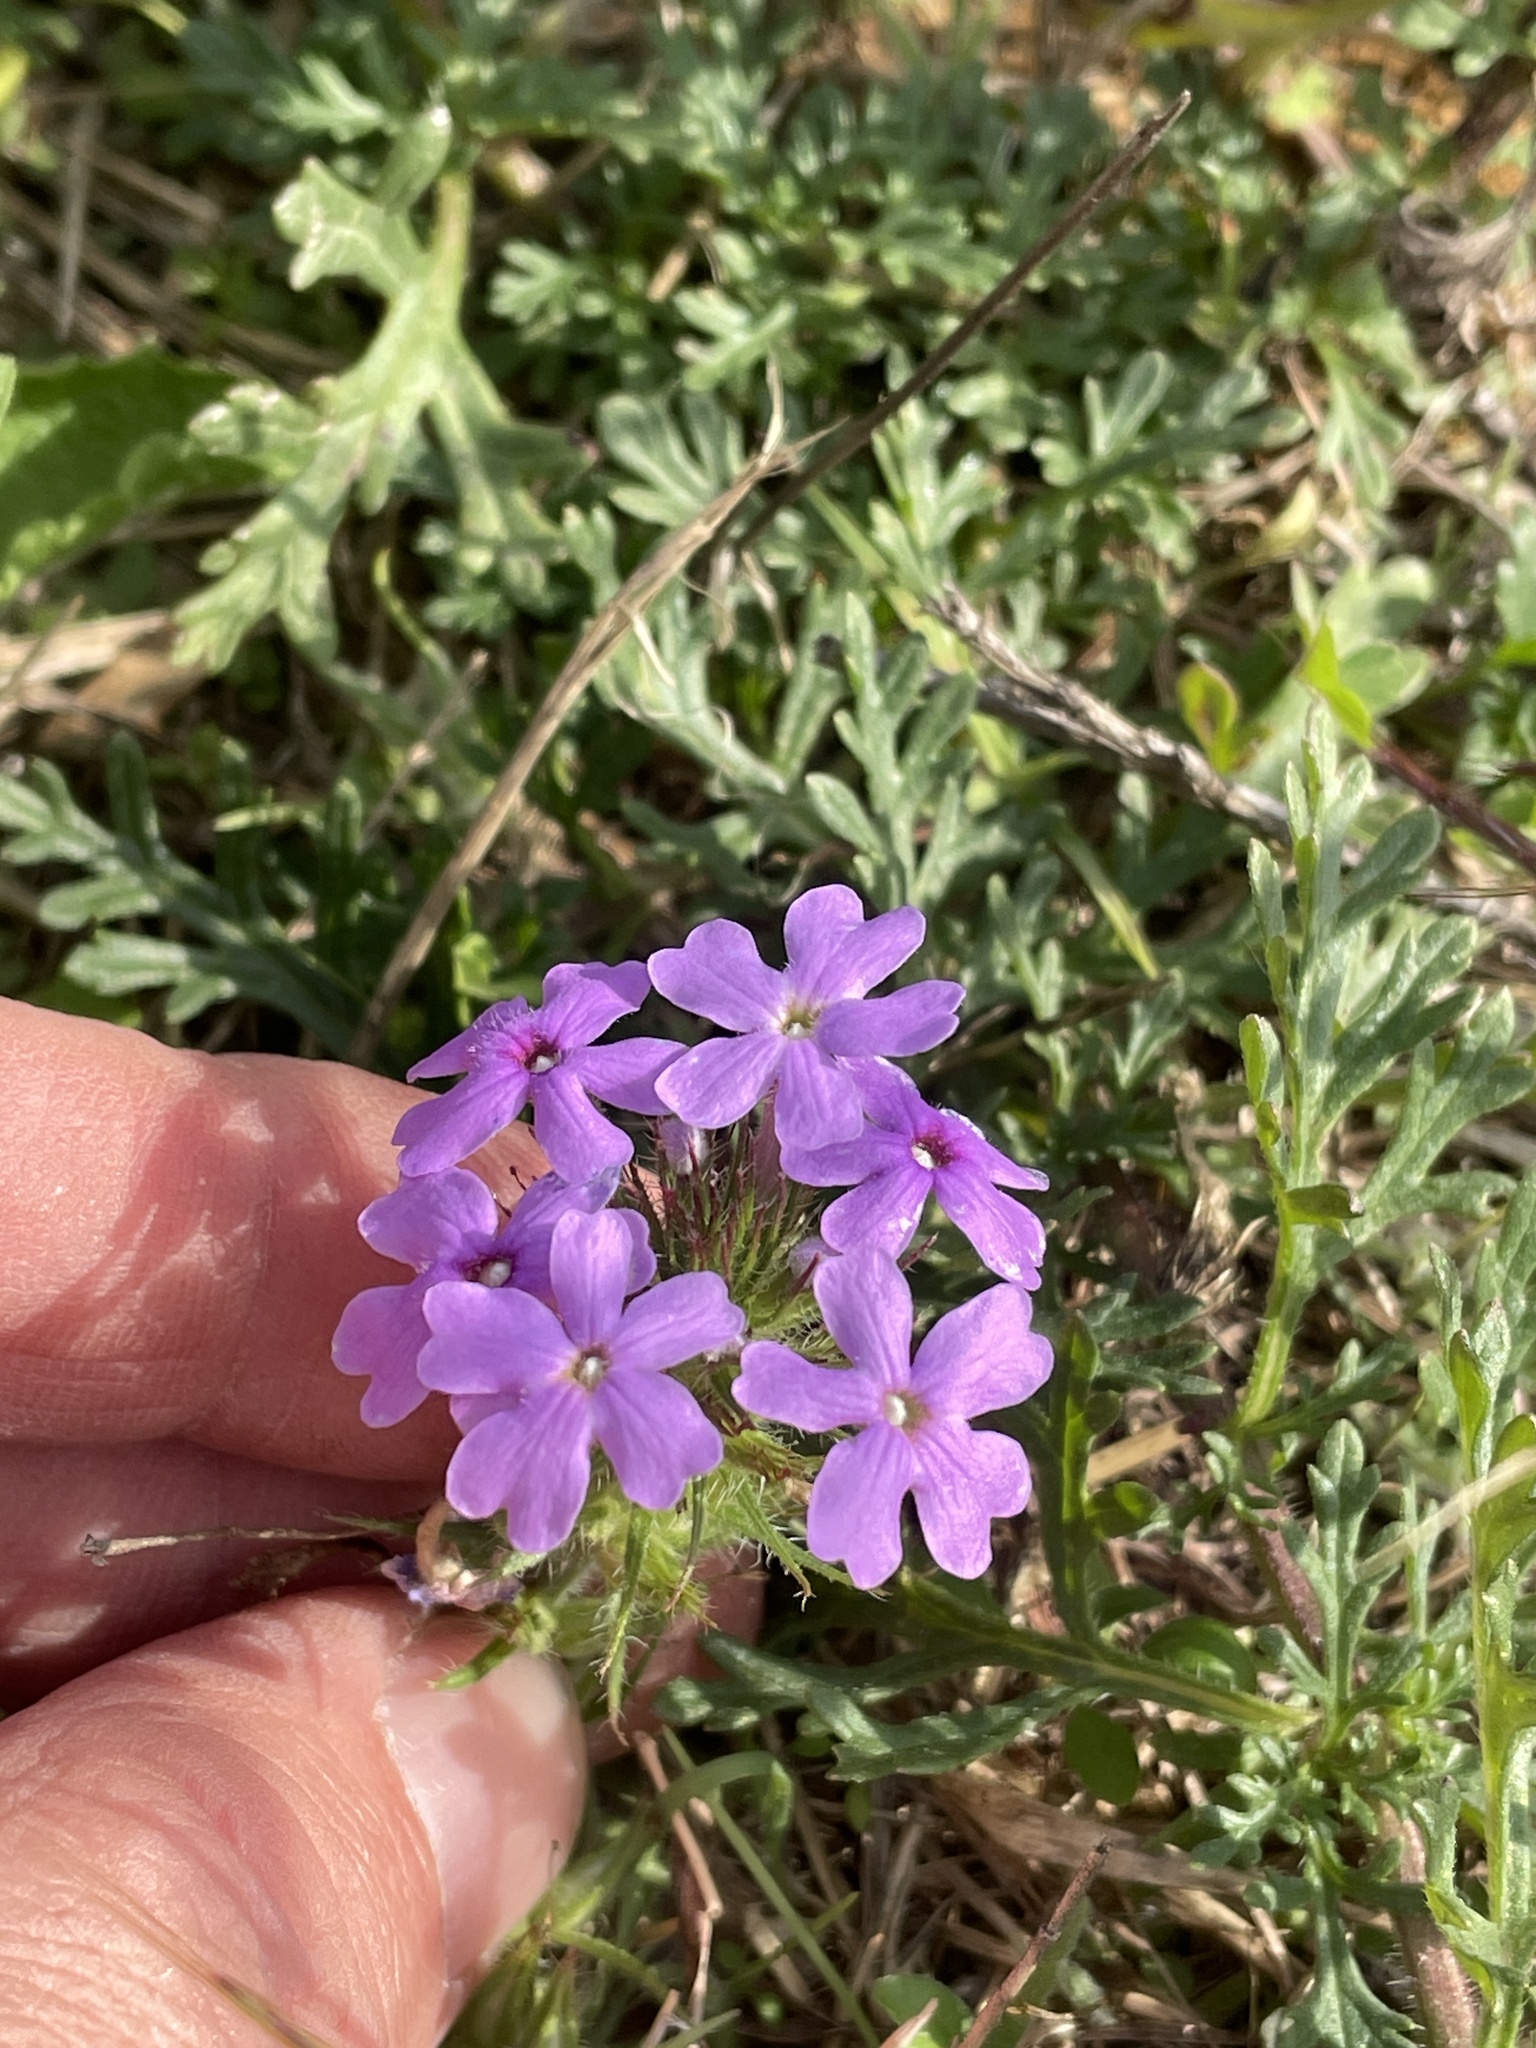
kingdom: Plantae
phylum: Tracheophyta
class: Magnoliopsida
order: Lamiales
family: Verbenaceae
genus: Verbena
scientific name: Verbena bipinnatifida
